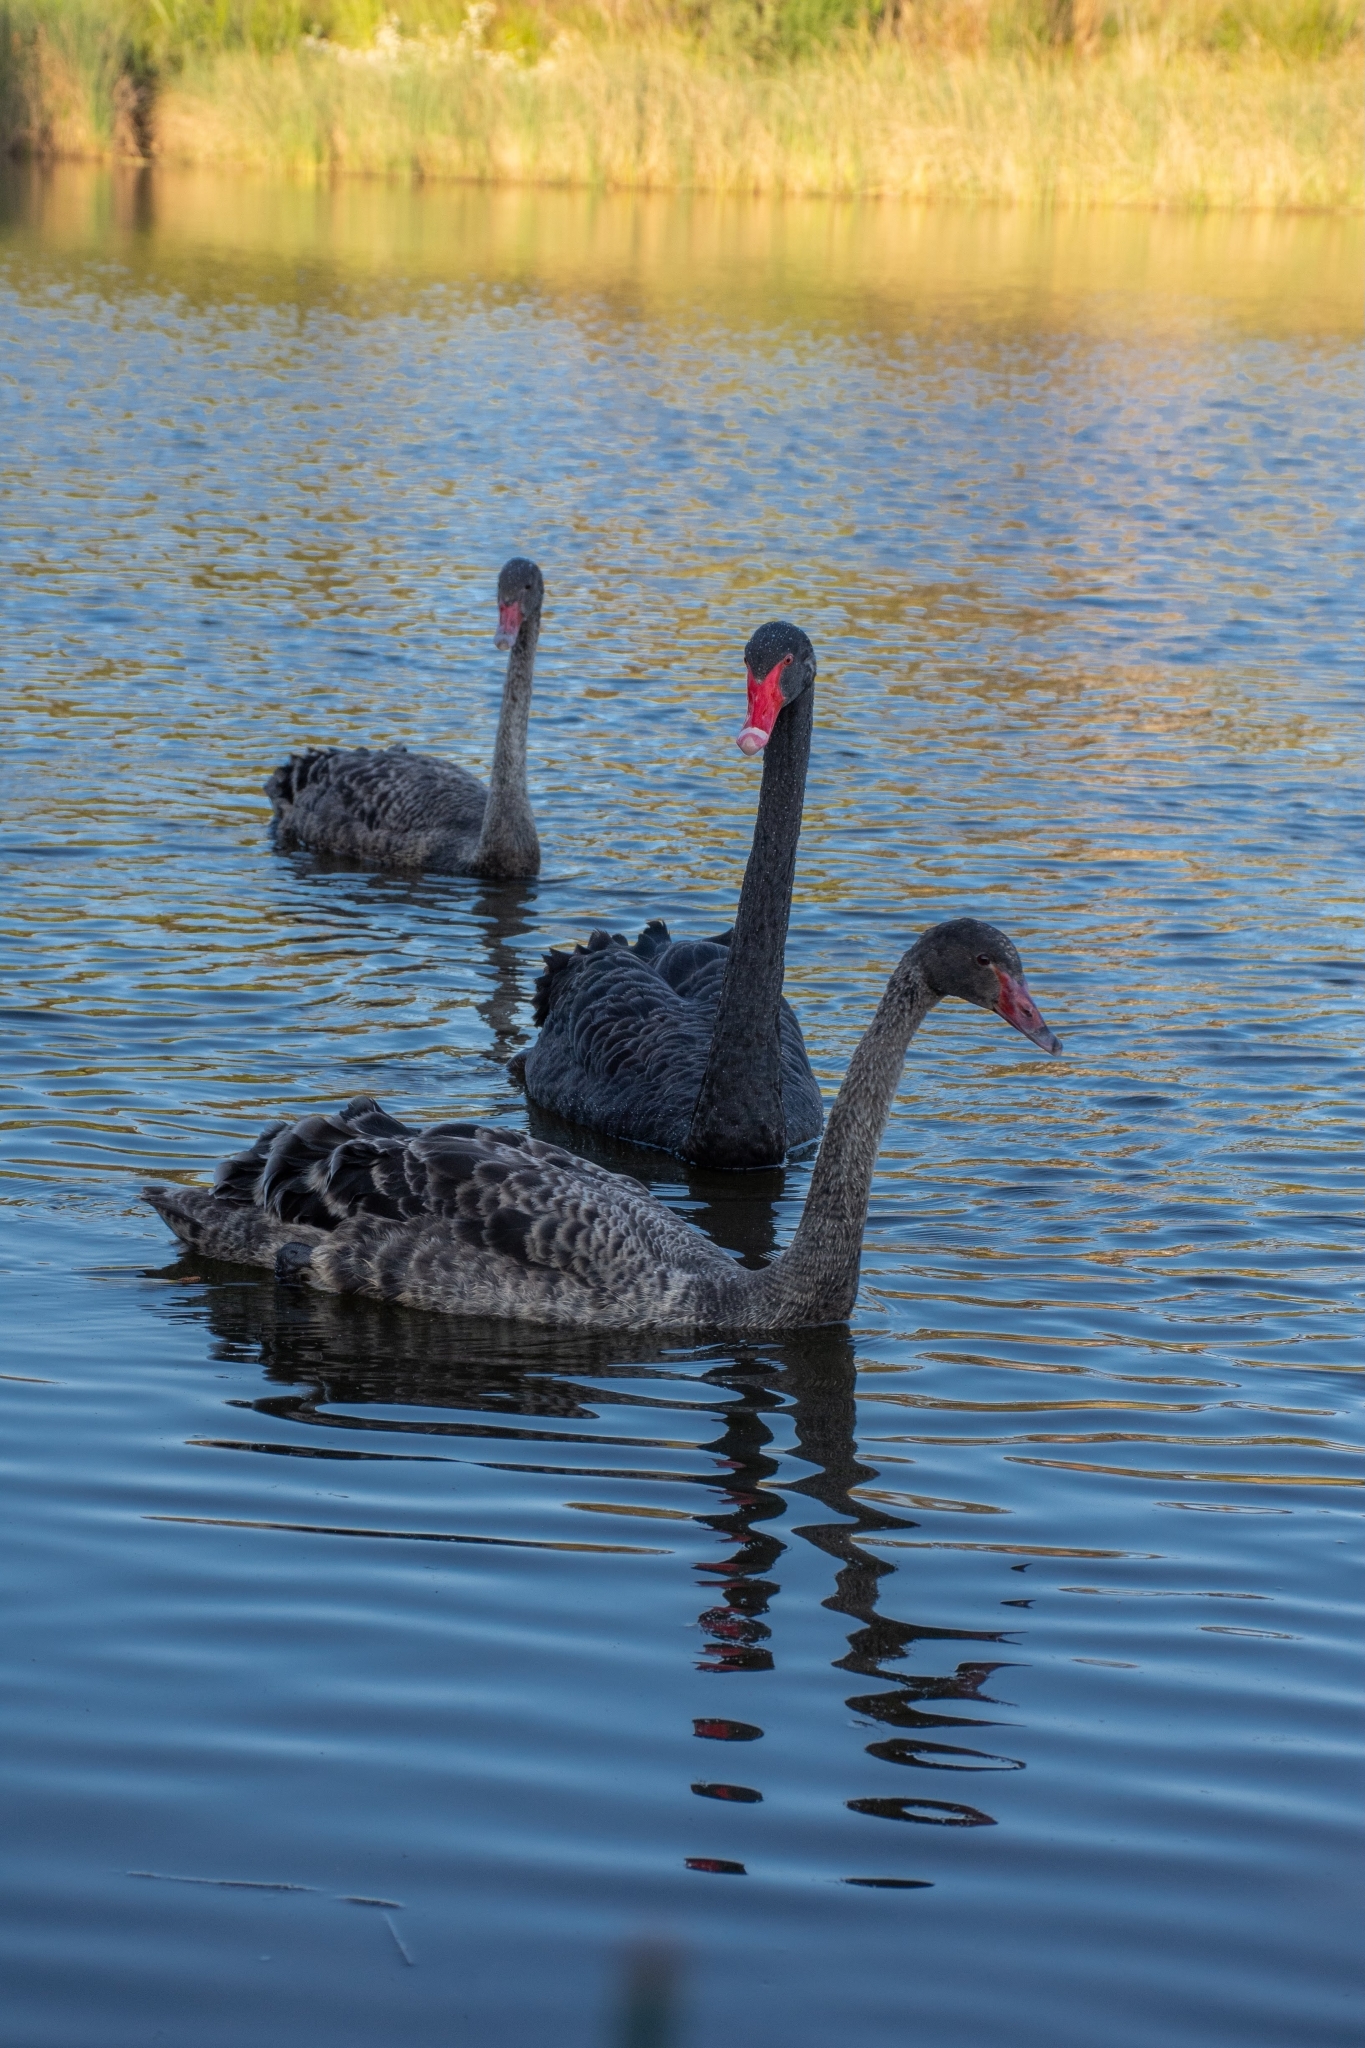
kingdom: Animalia
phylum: Chordata
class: Aves
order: Anseriformes
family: Anatidae
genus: Cygnus
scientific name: Cygnus atratus
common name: Black swan
